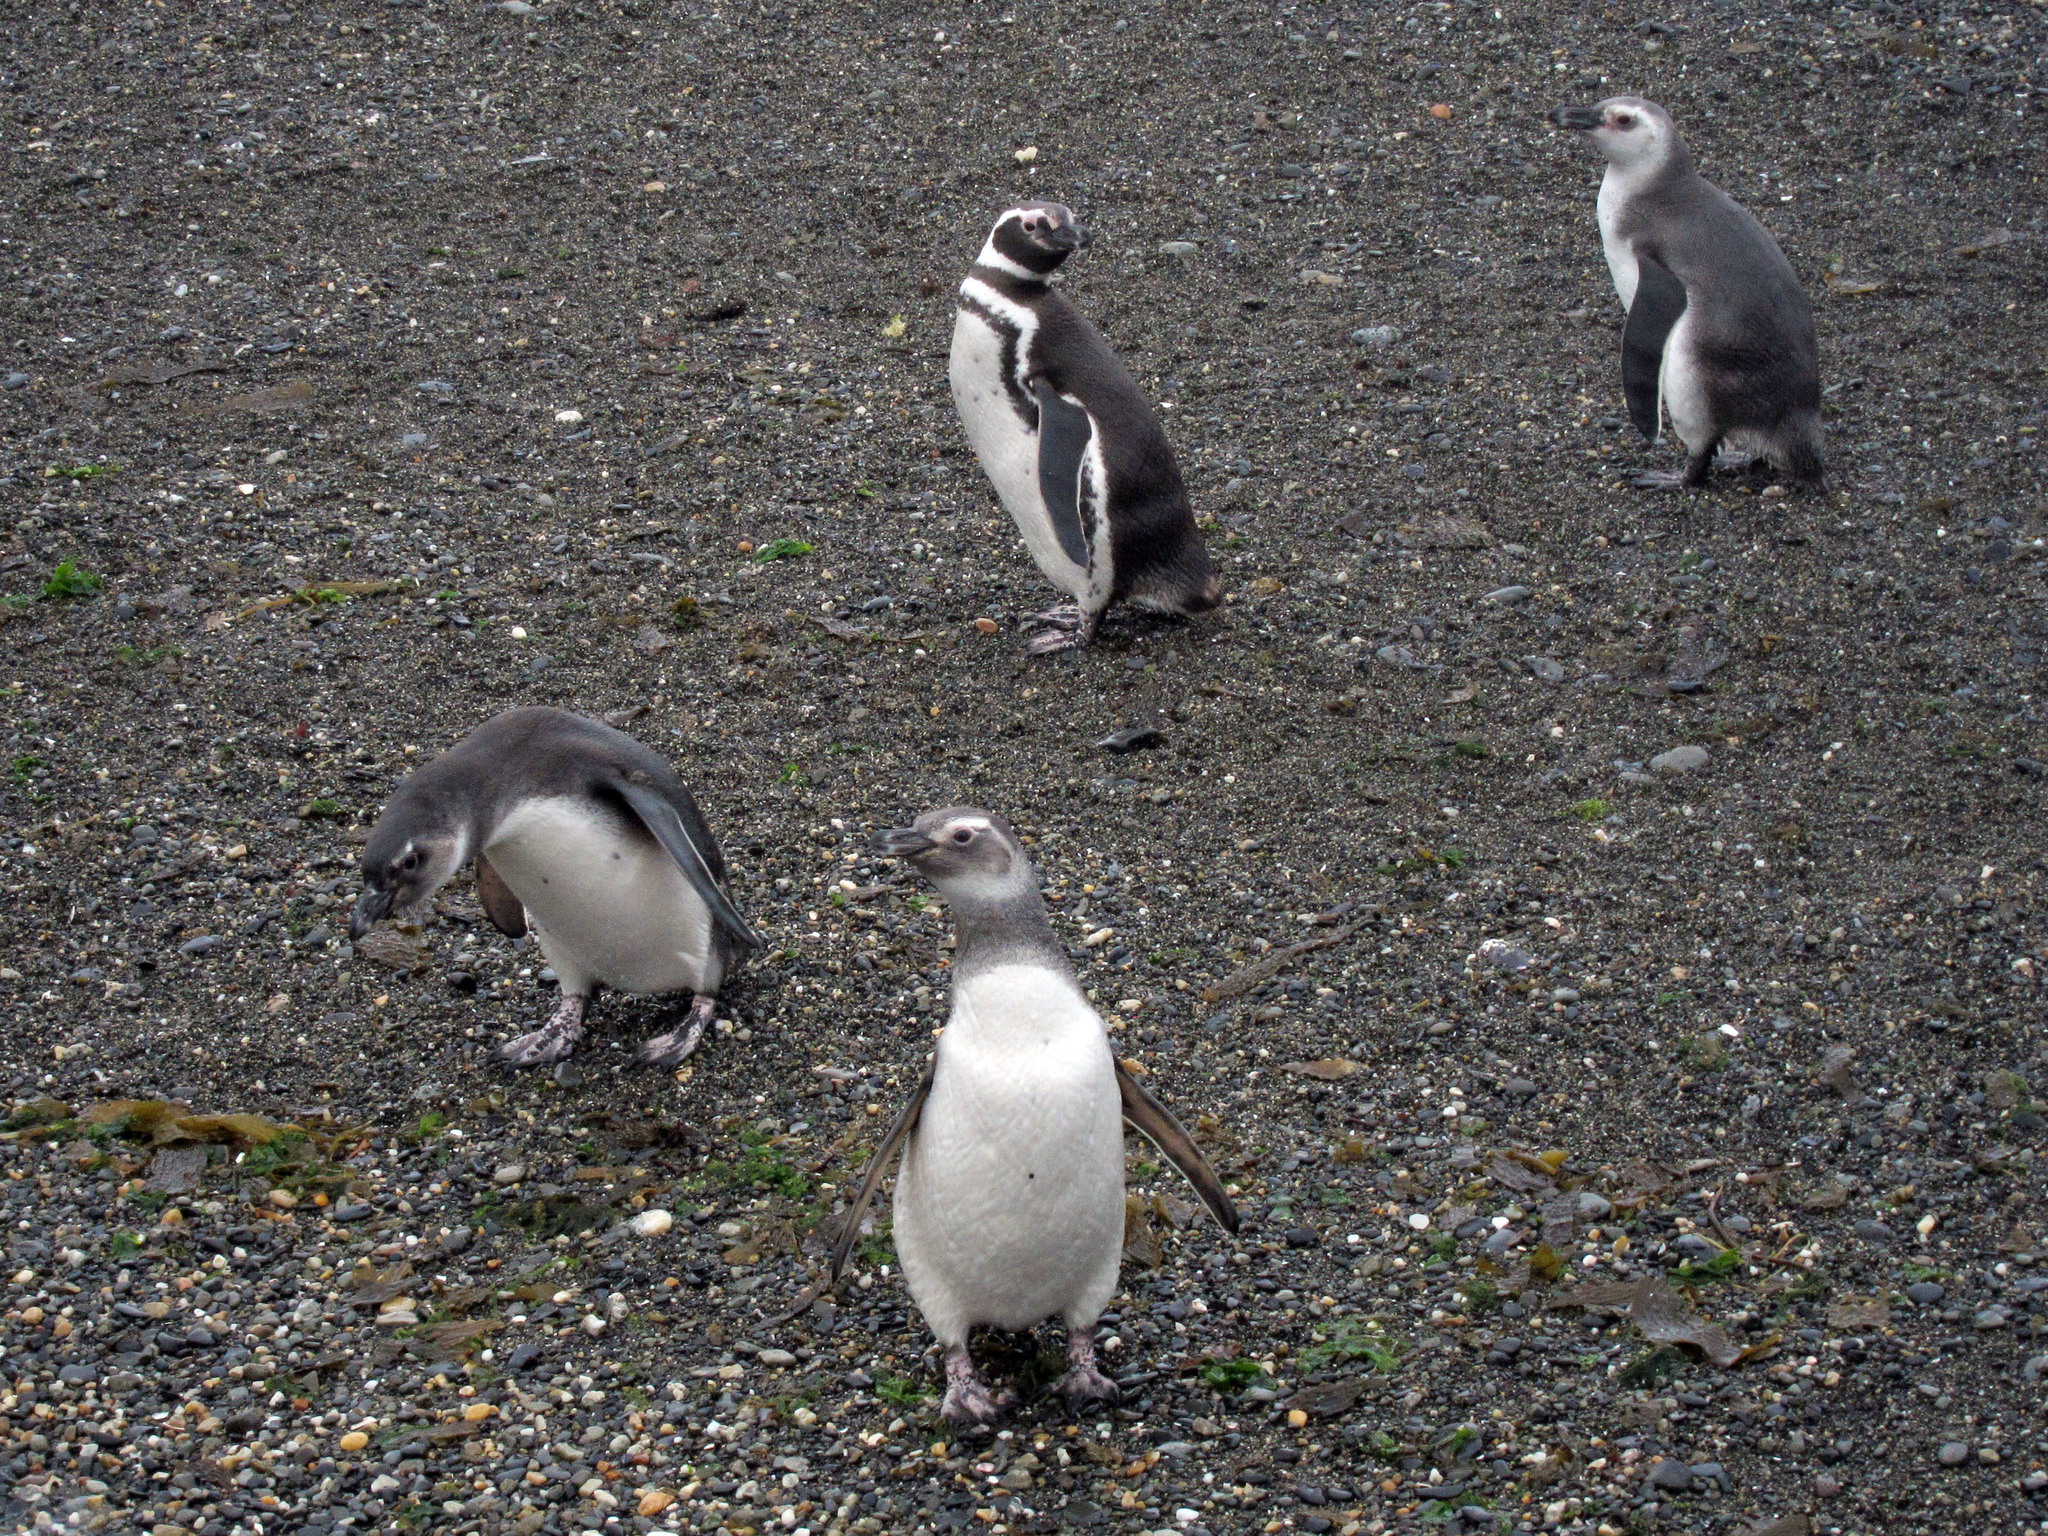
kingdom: Animalia
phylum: Chordata
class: Aves
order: Sphenisciformes
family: Spheniscidae
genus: Spheniscus
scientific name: Spheniscus magellanicus
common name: Magellanic penguin
